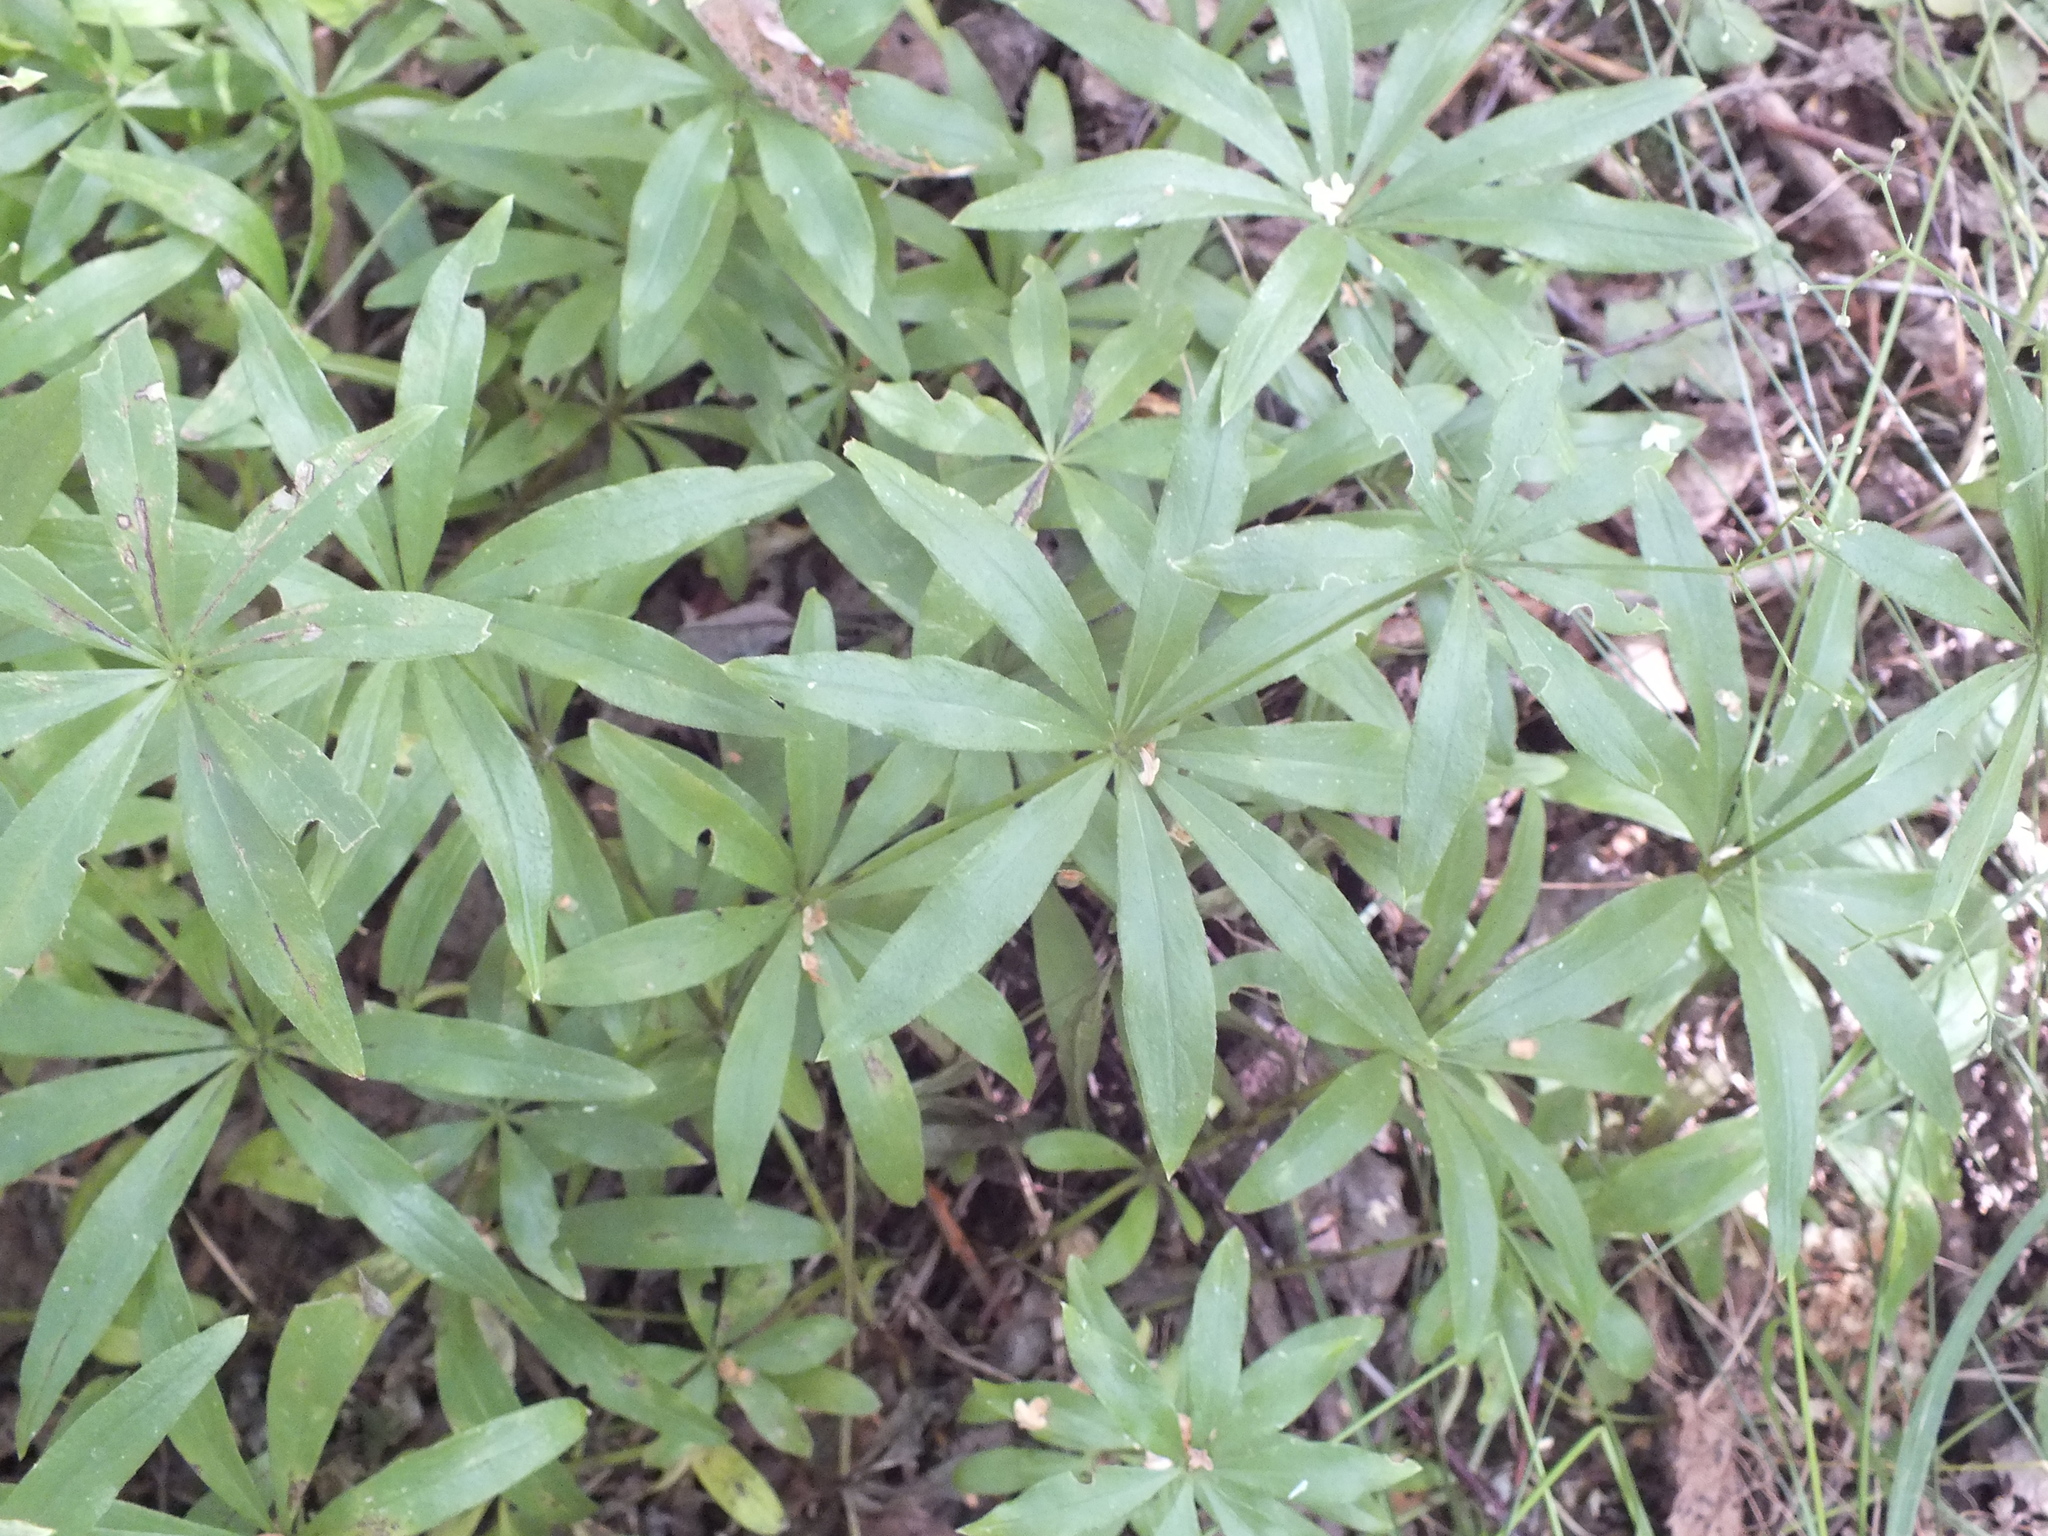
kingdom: Plantae
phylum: Tracheophyta
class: Magnoliopsida
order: Gentianales
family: Rubiaceae
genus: Galium
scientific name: Galium odoratum
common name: Sweet woodruff
